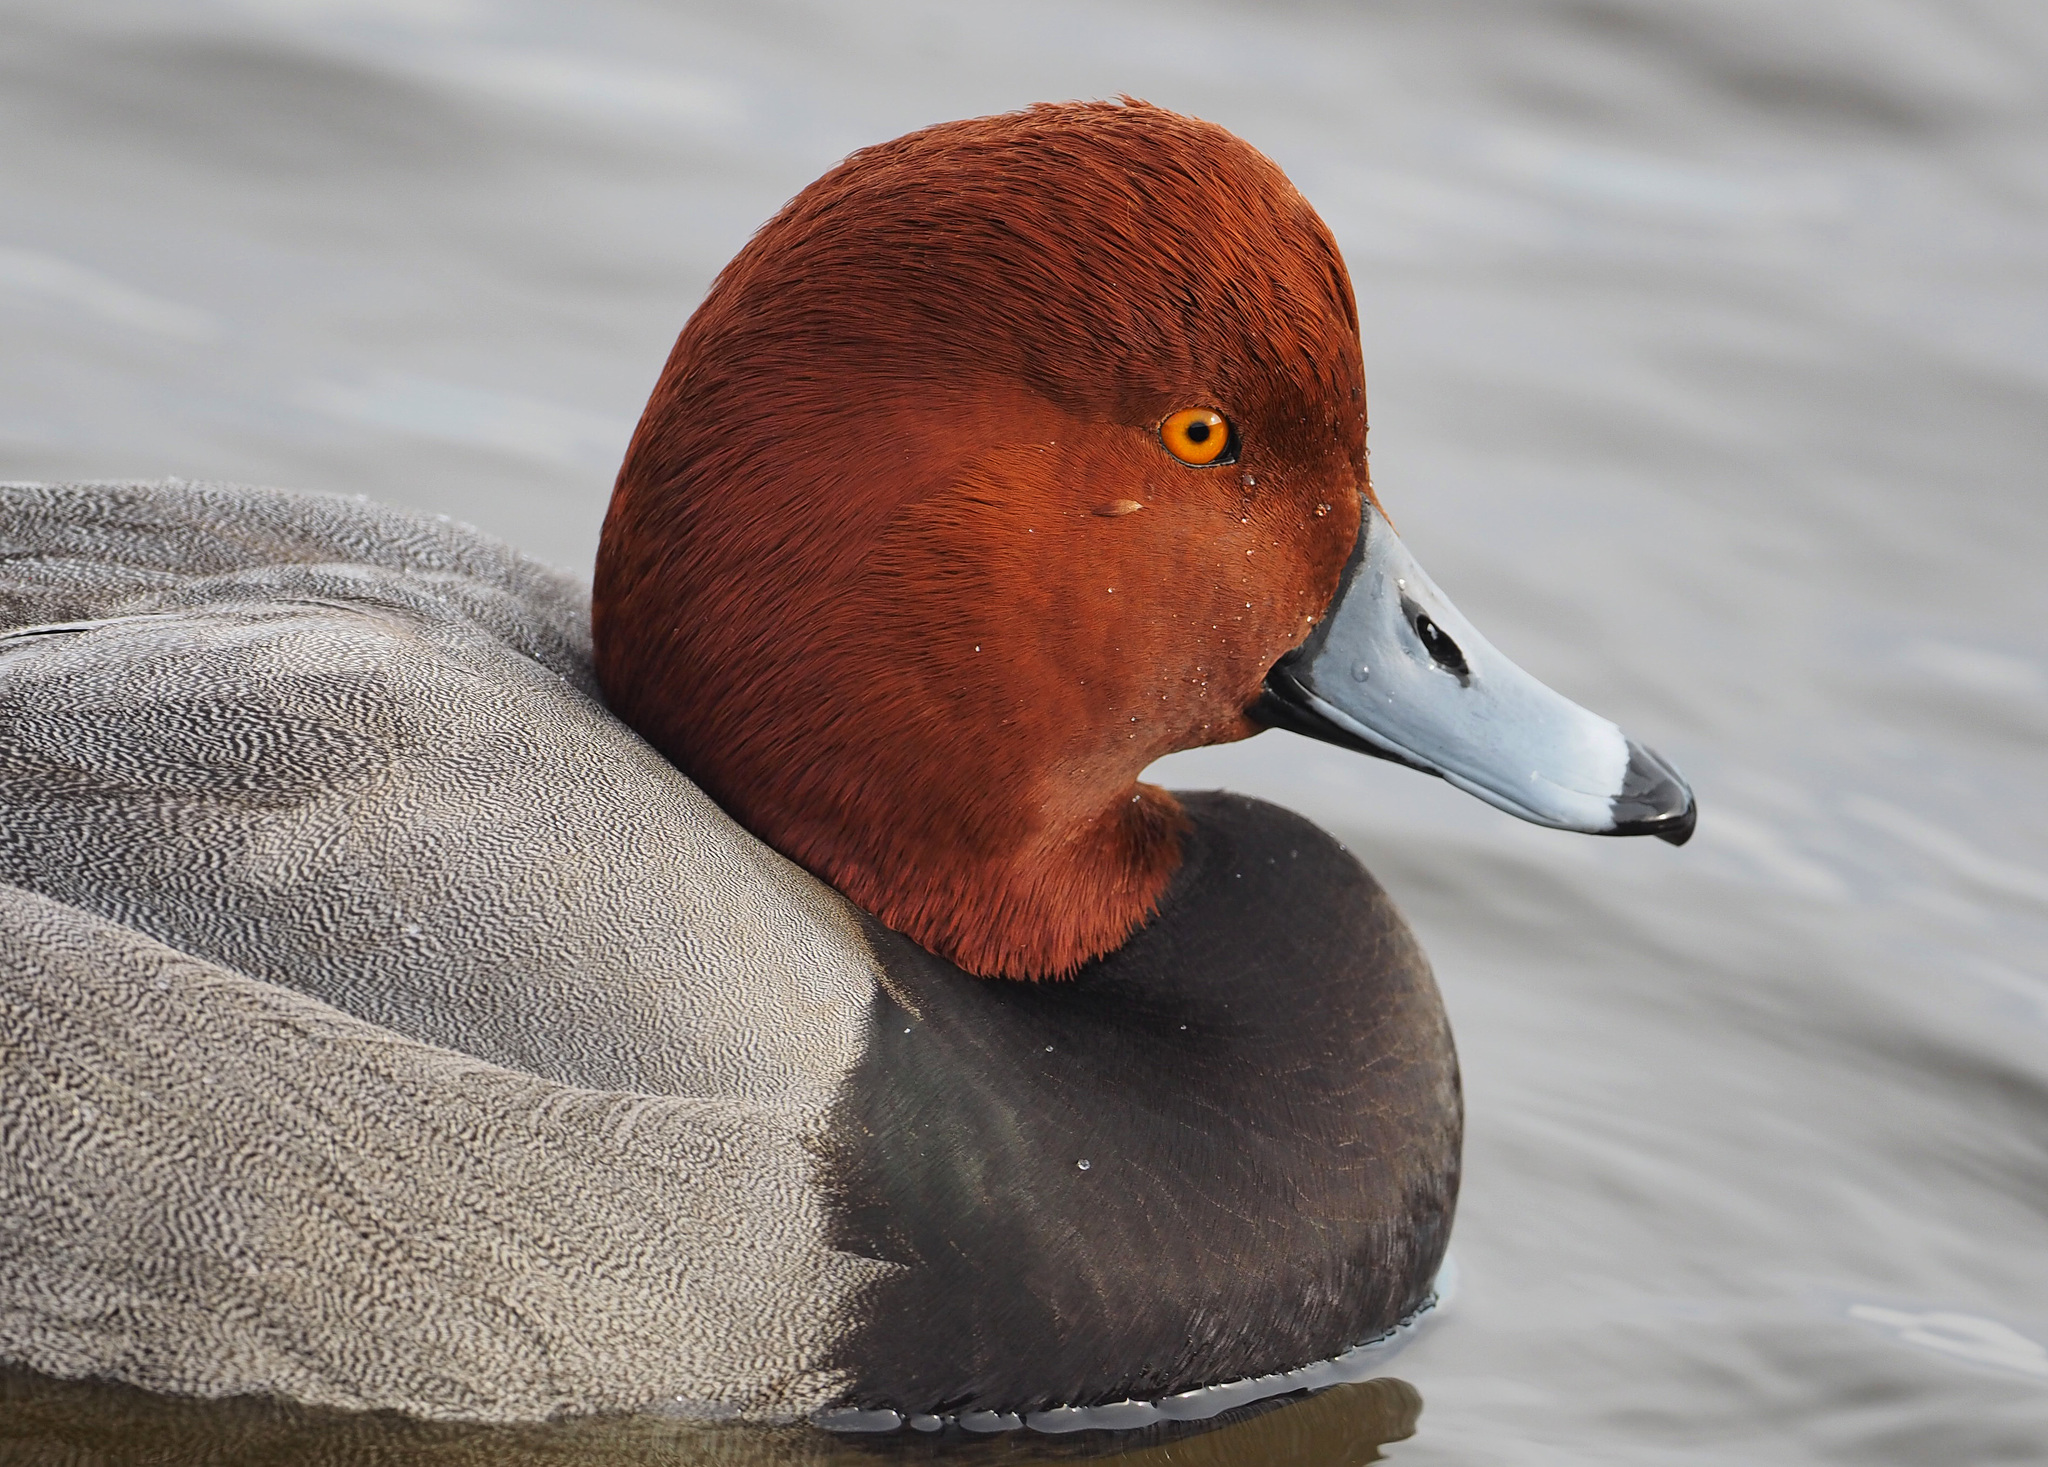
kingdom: Animalia
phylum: Chordata
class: Aves
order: Anseriformes
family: Anatidae
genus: Aythya
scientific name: Aythya americana
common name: Redhead
